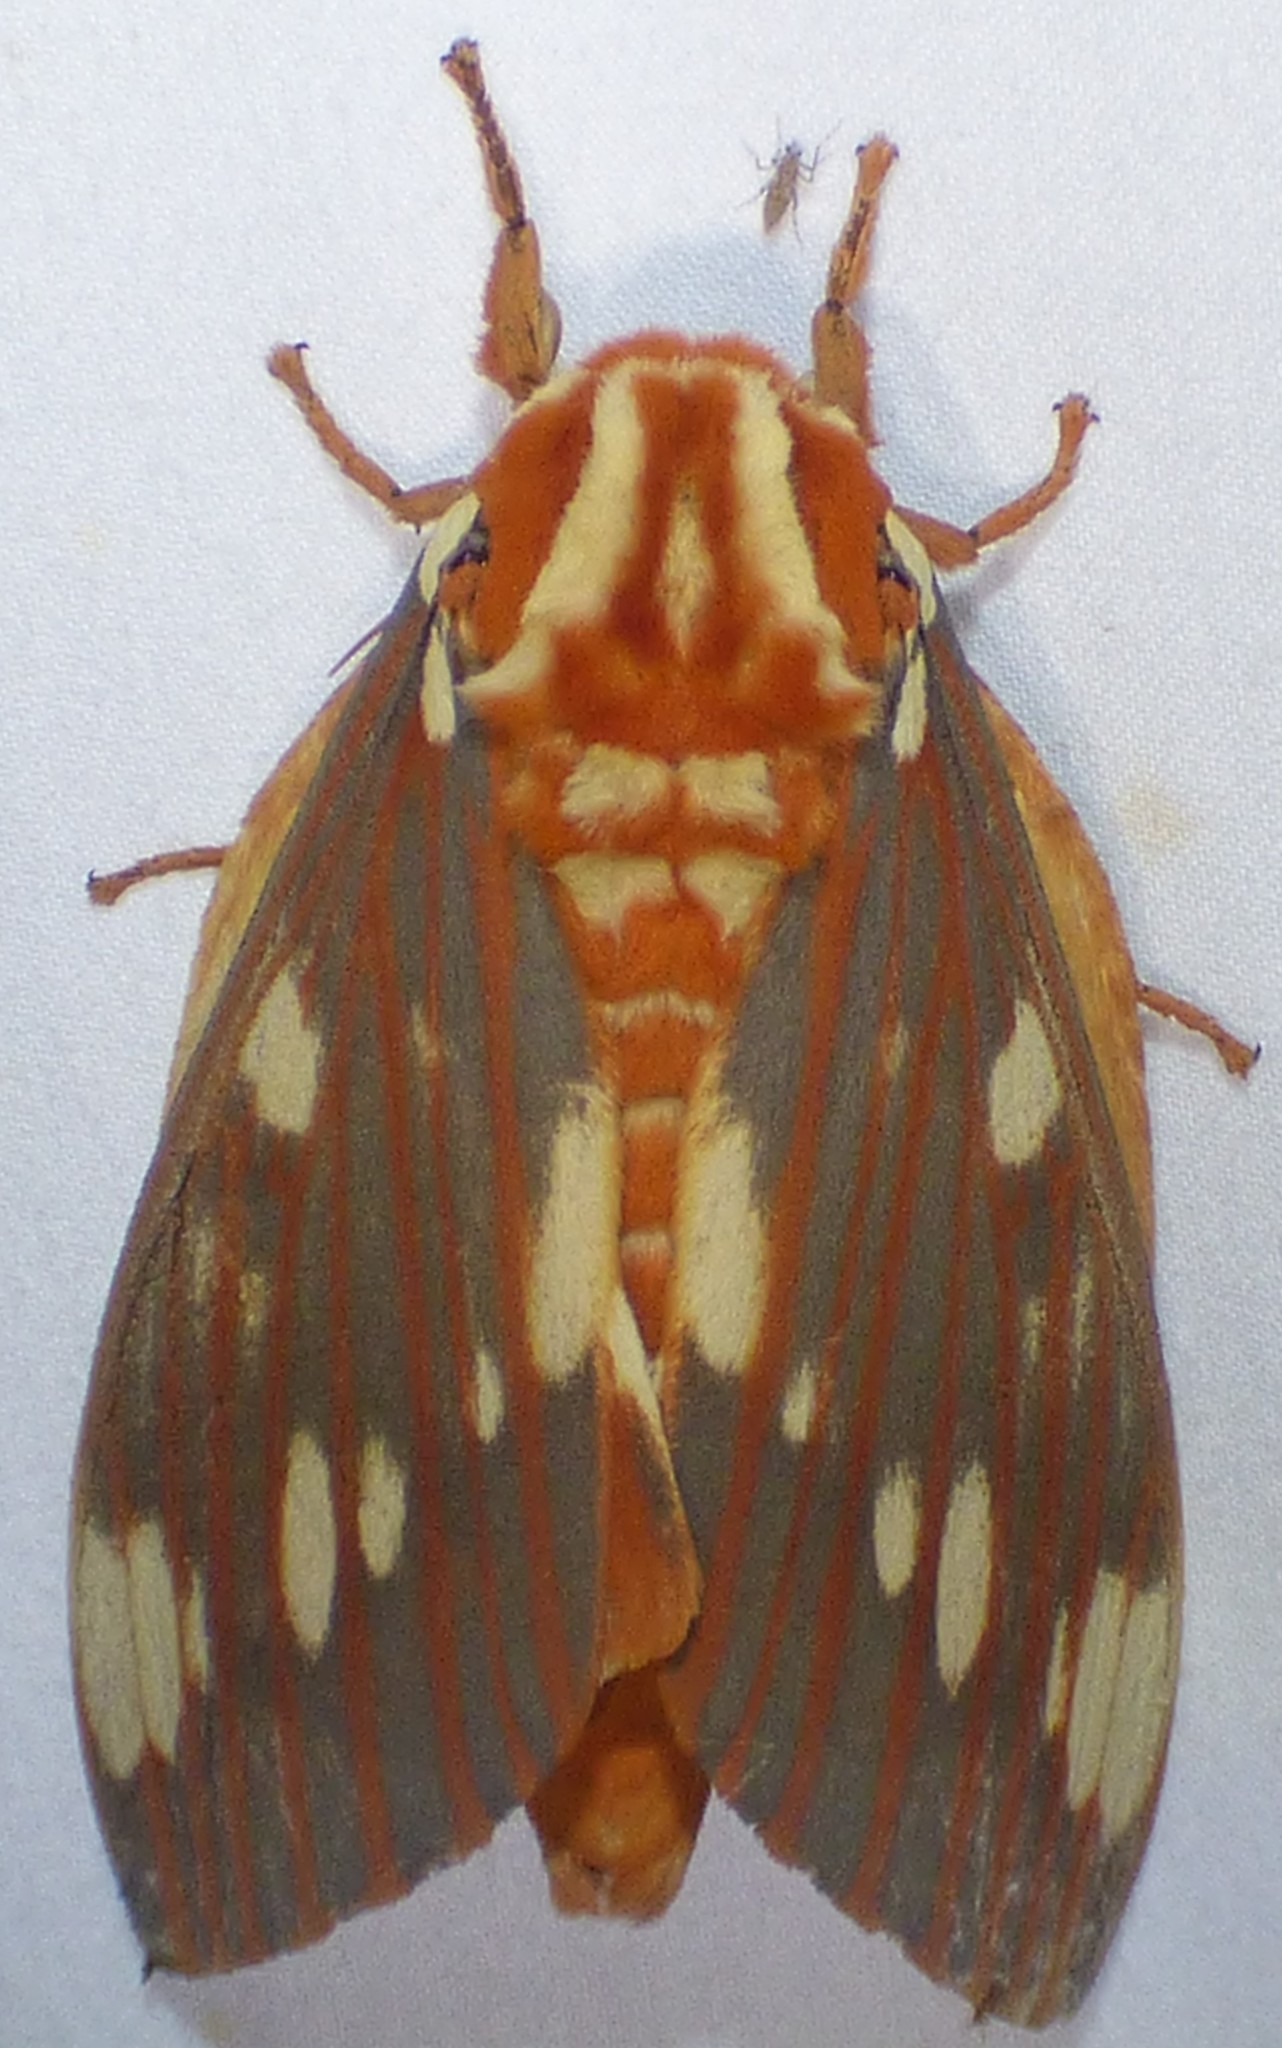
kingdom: Animalia
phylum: Arthropoda
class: Insecta
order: Lepidoptera
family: Saturniidae
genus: Citheronia
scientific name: Citheronia regalis
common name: Hickory horned devil
